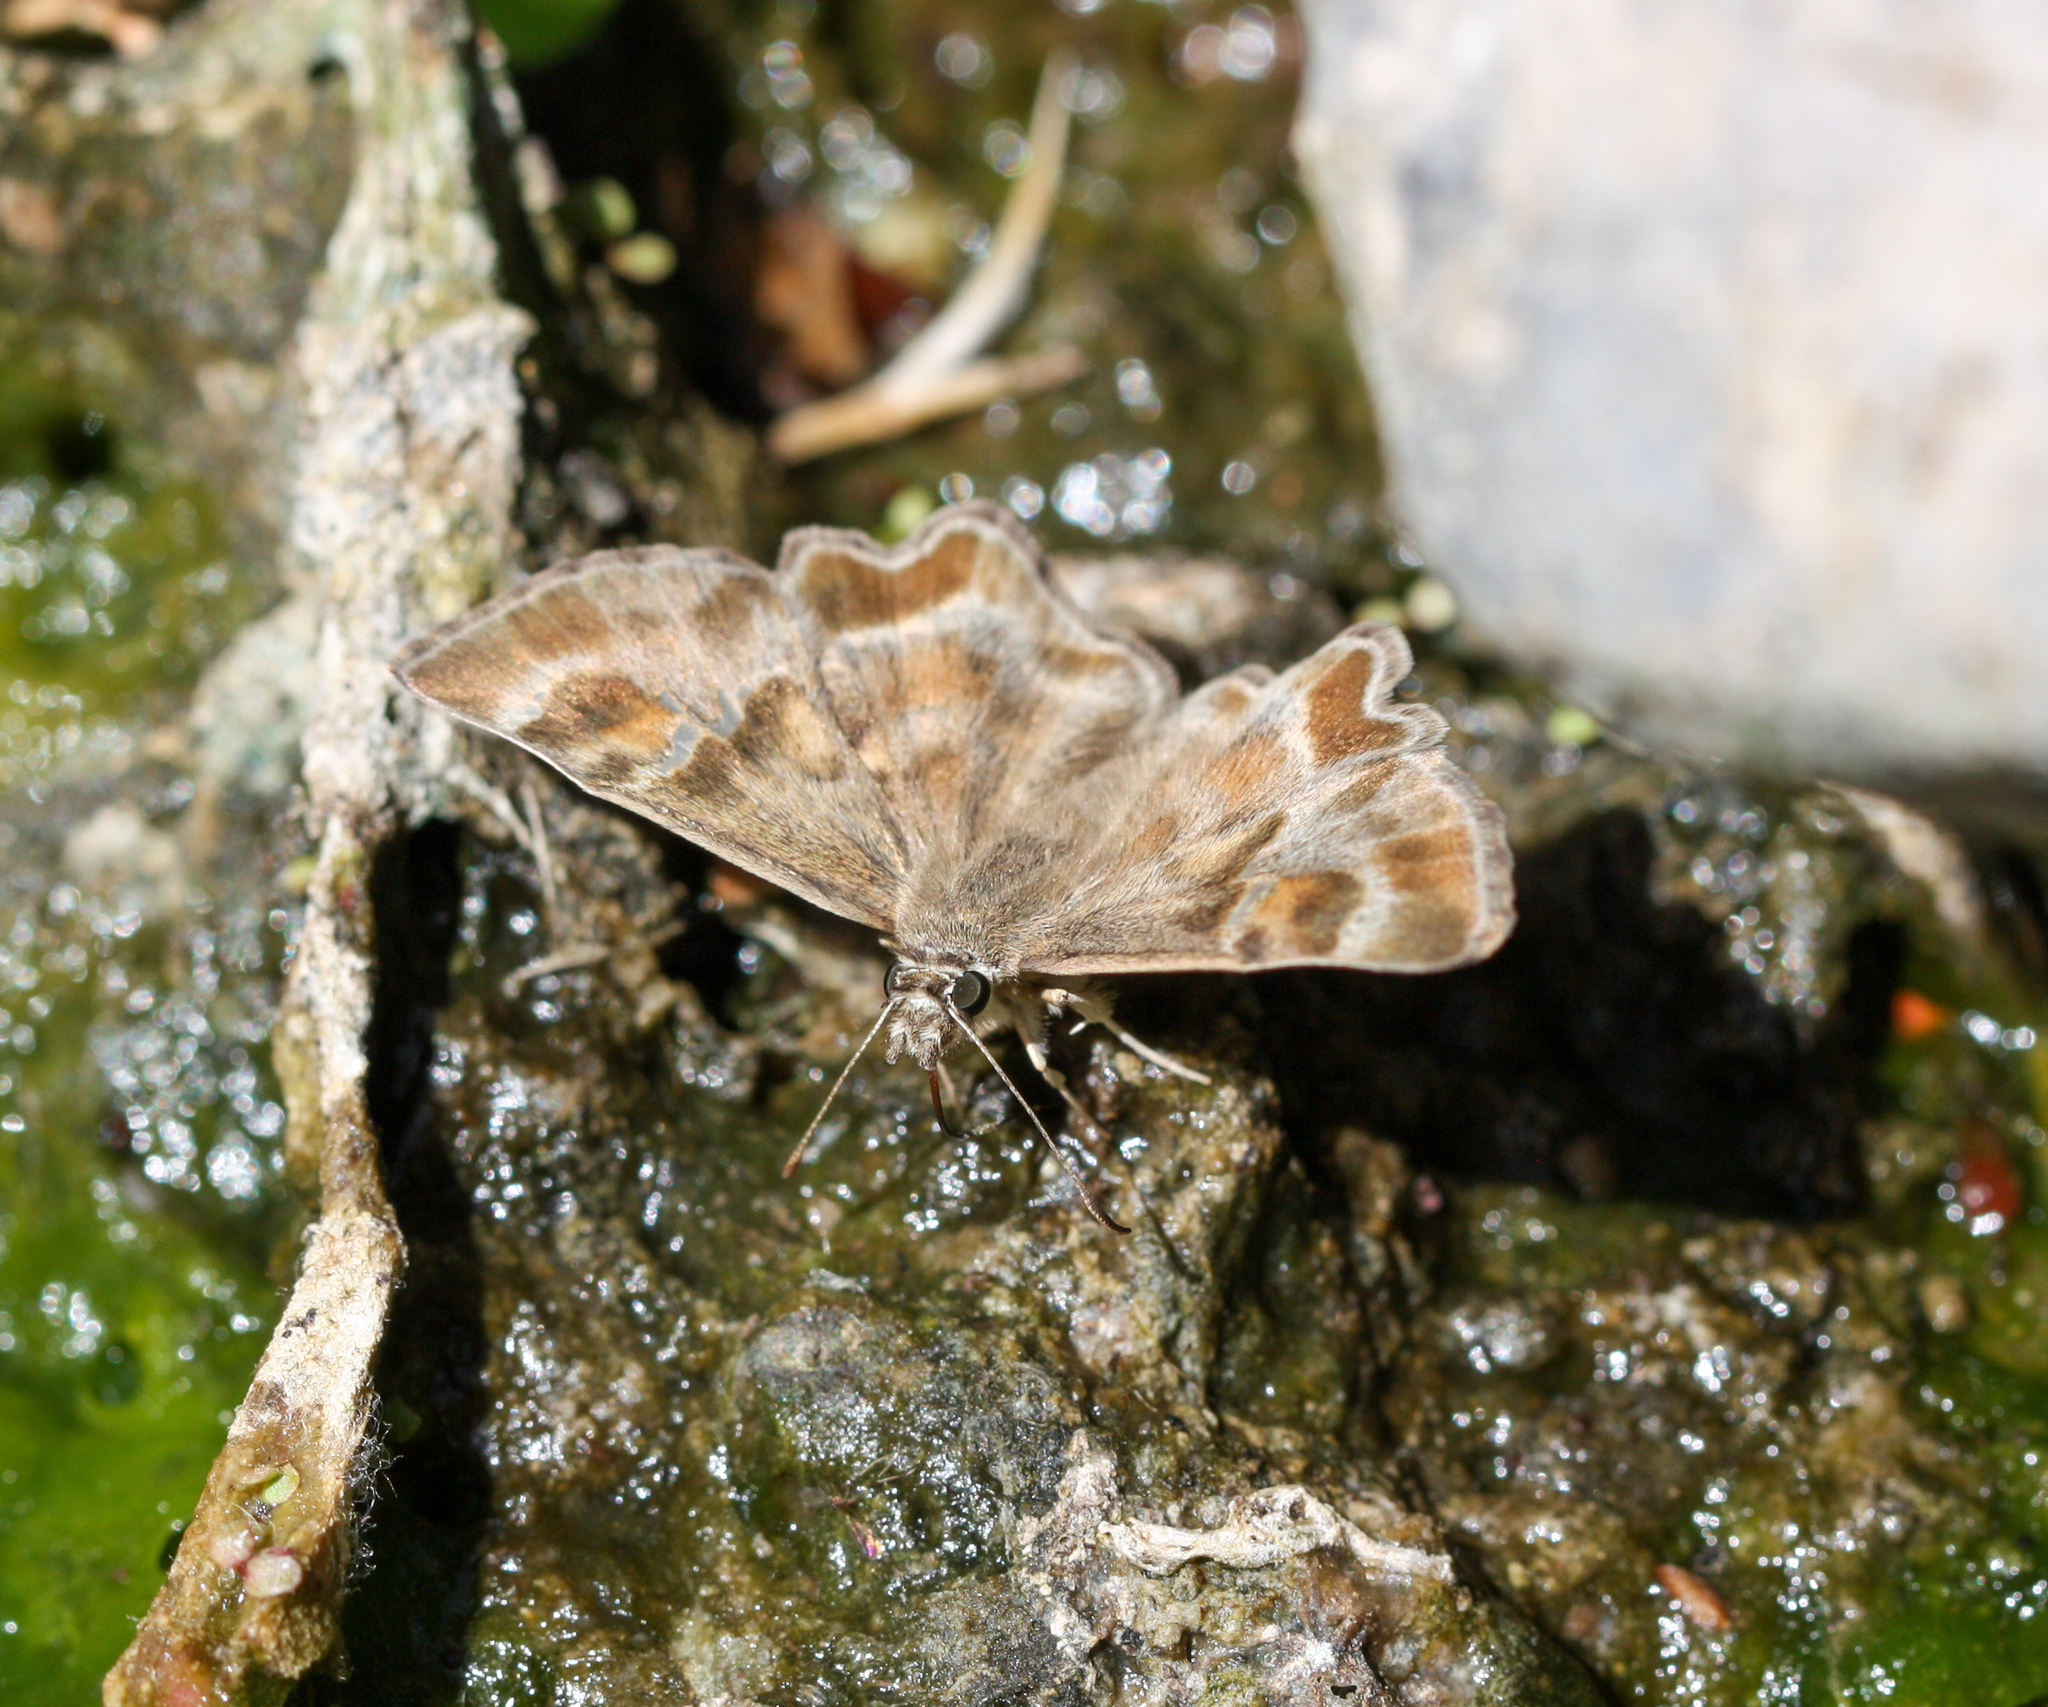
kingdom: Animalia
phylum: Arthropoda
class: Insecta
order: Lepidoptera
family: Hesperiidae
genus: Systasea
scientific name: Systasea zampa
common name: Arizona powdered-skipper
